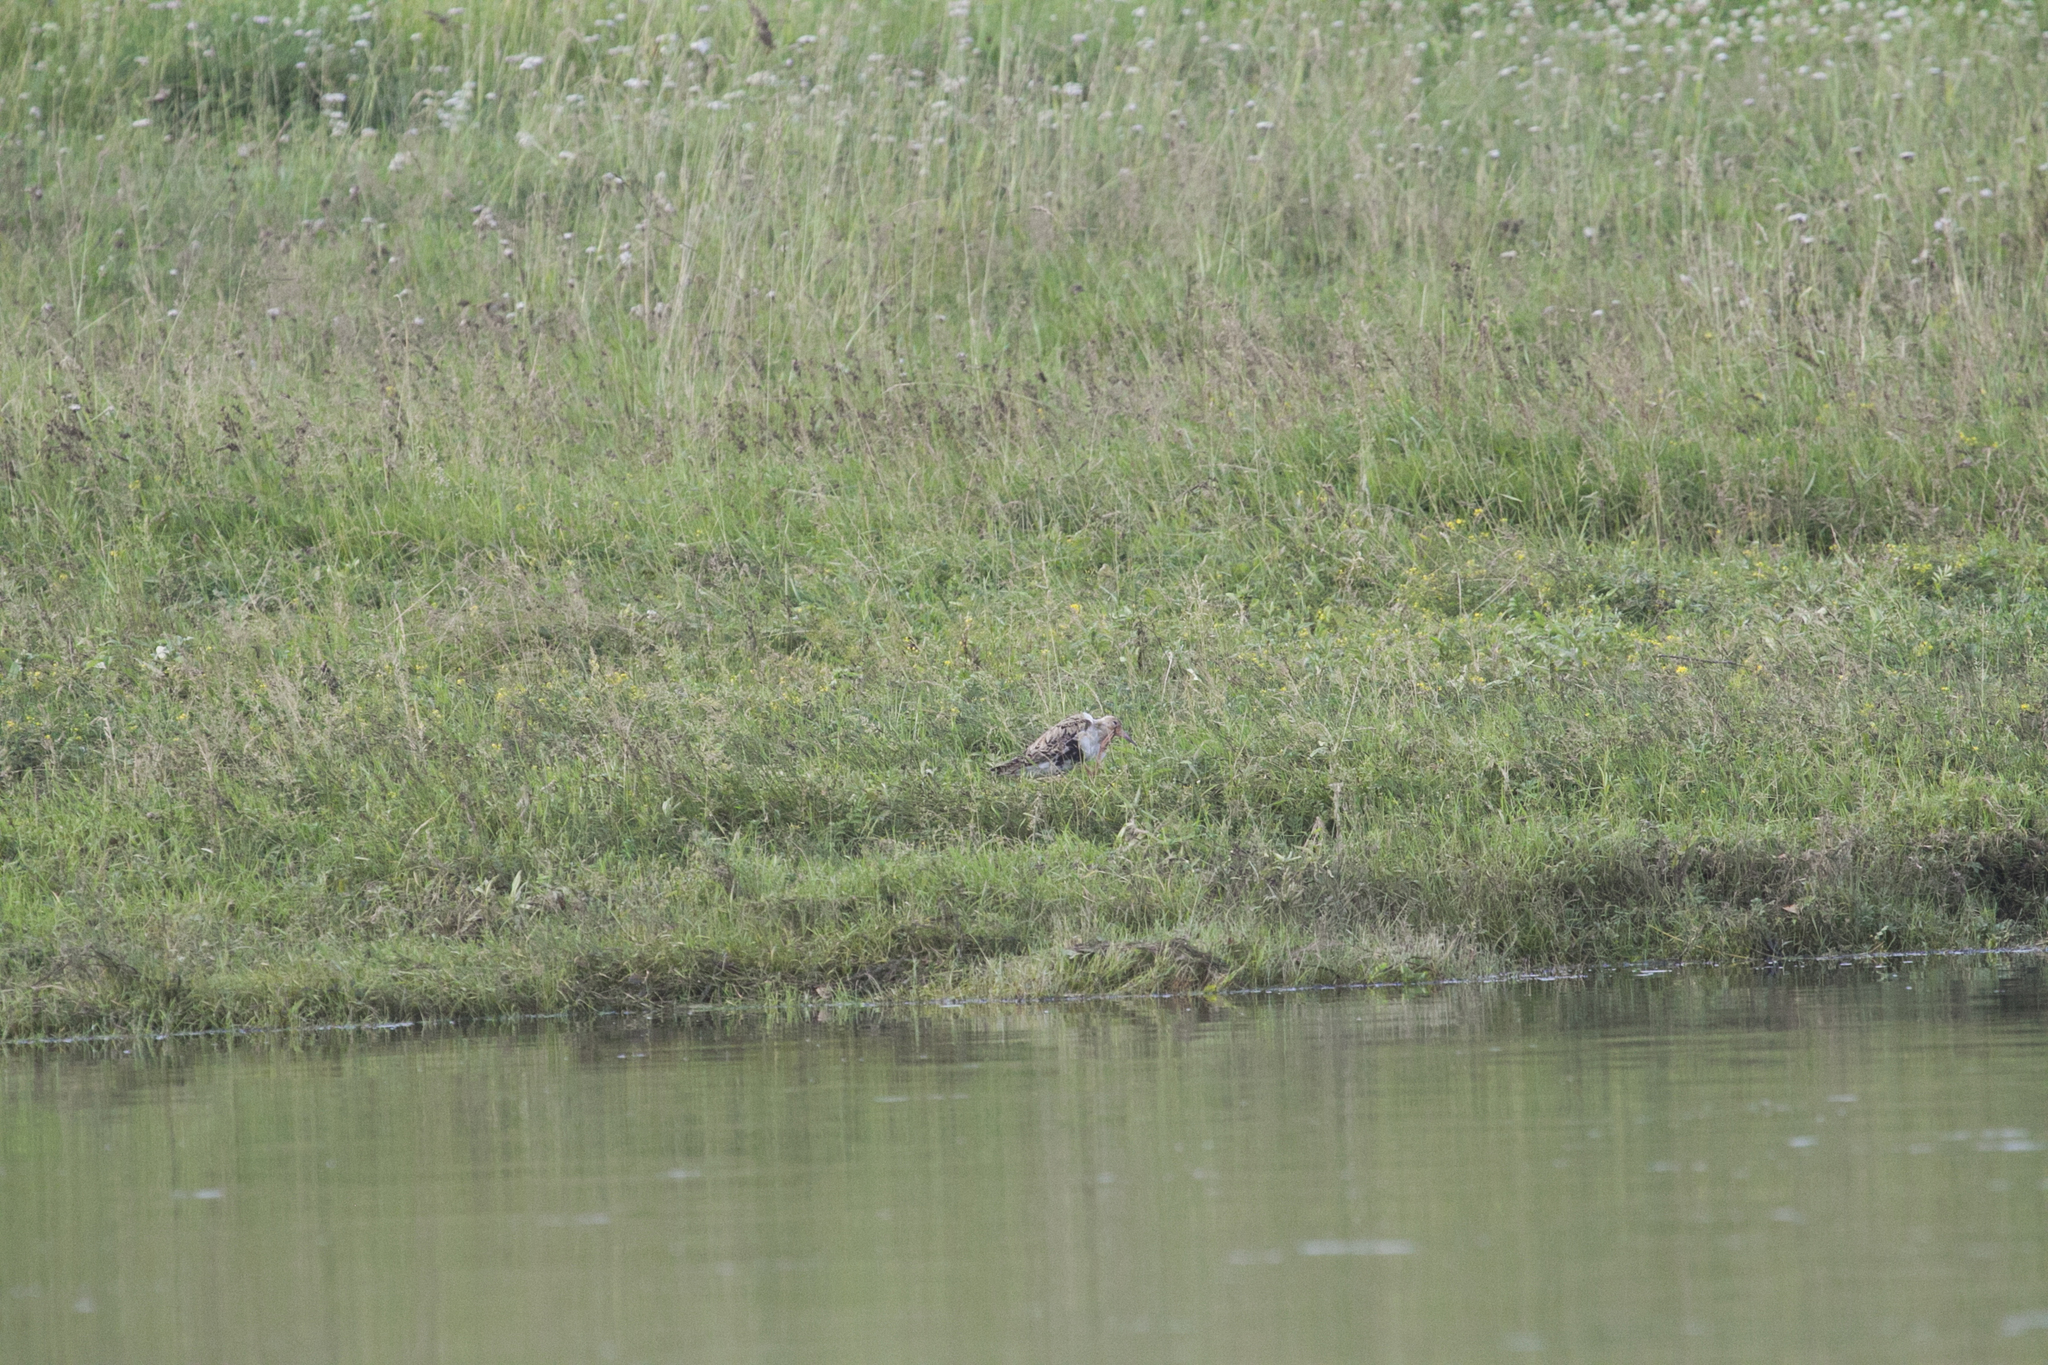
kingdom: Animalia
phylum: Chordata
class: Aves
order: Charadriiformes
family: Scolopacidae
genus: Calidris
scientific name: Calidris pugnax
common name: Ruff
